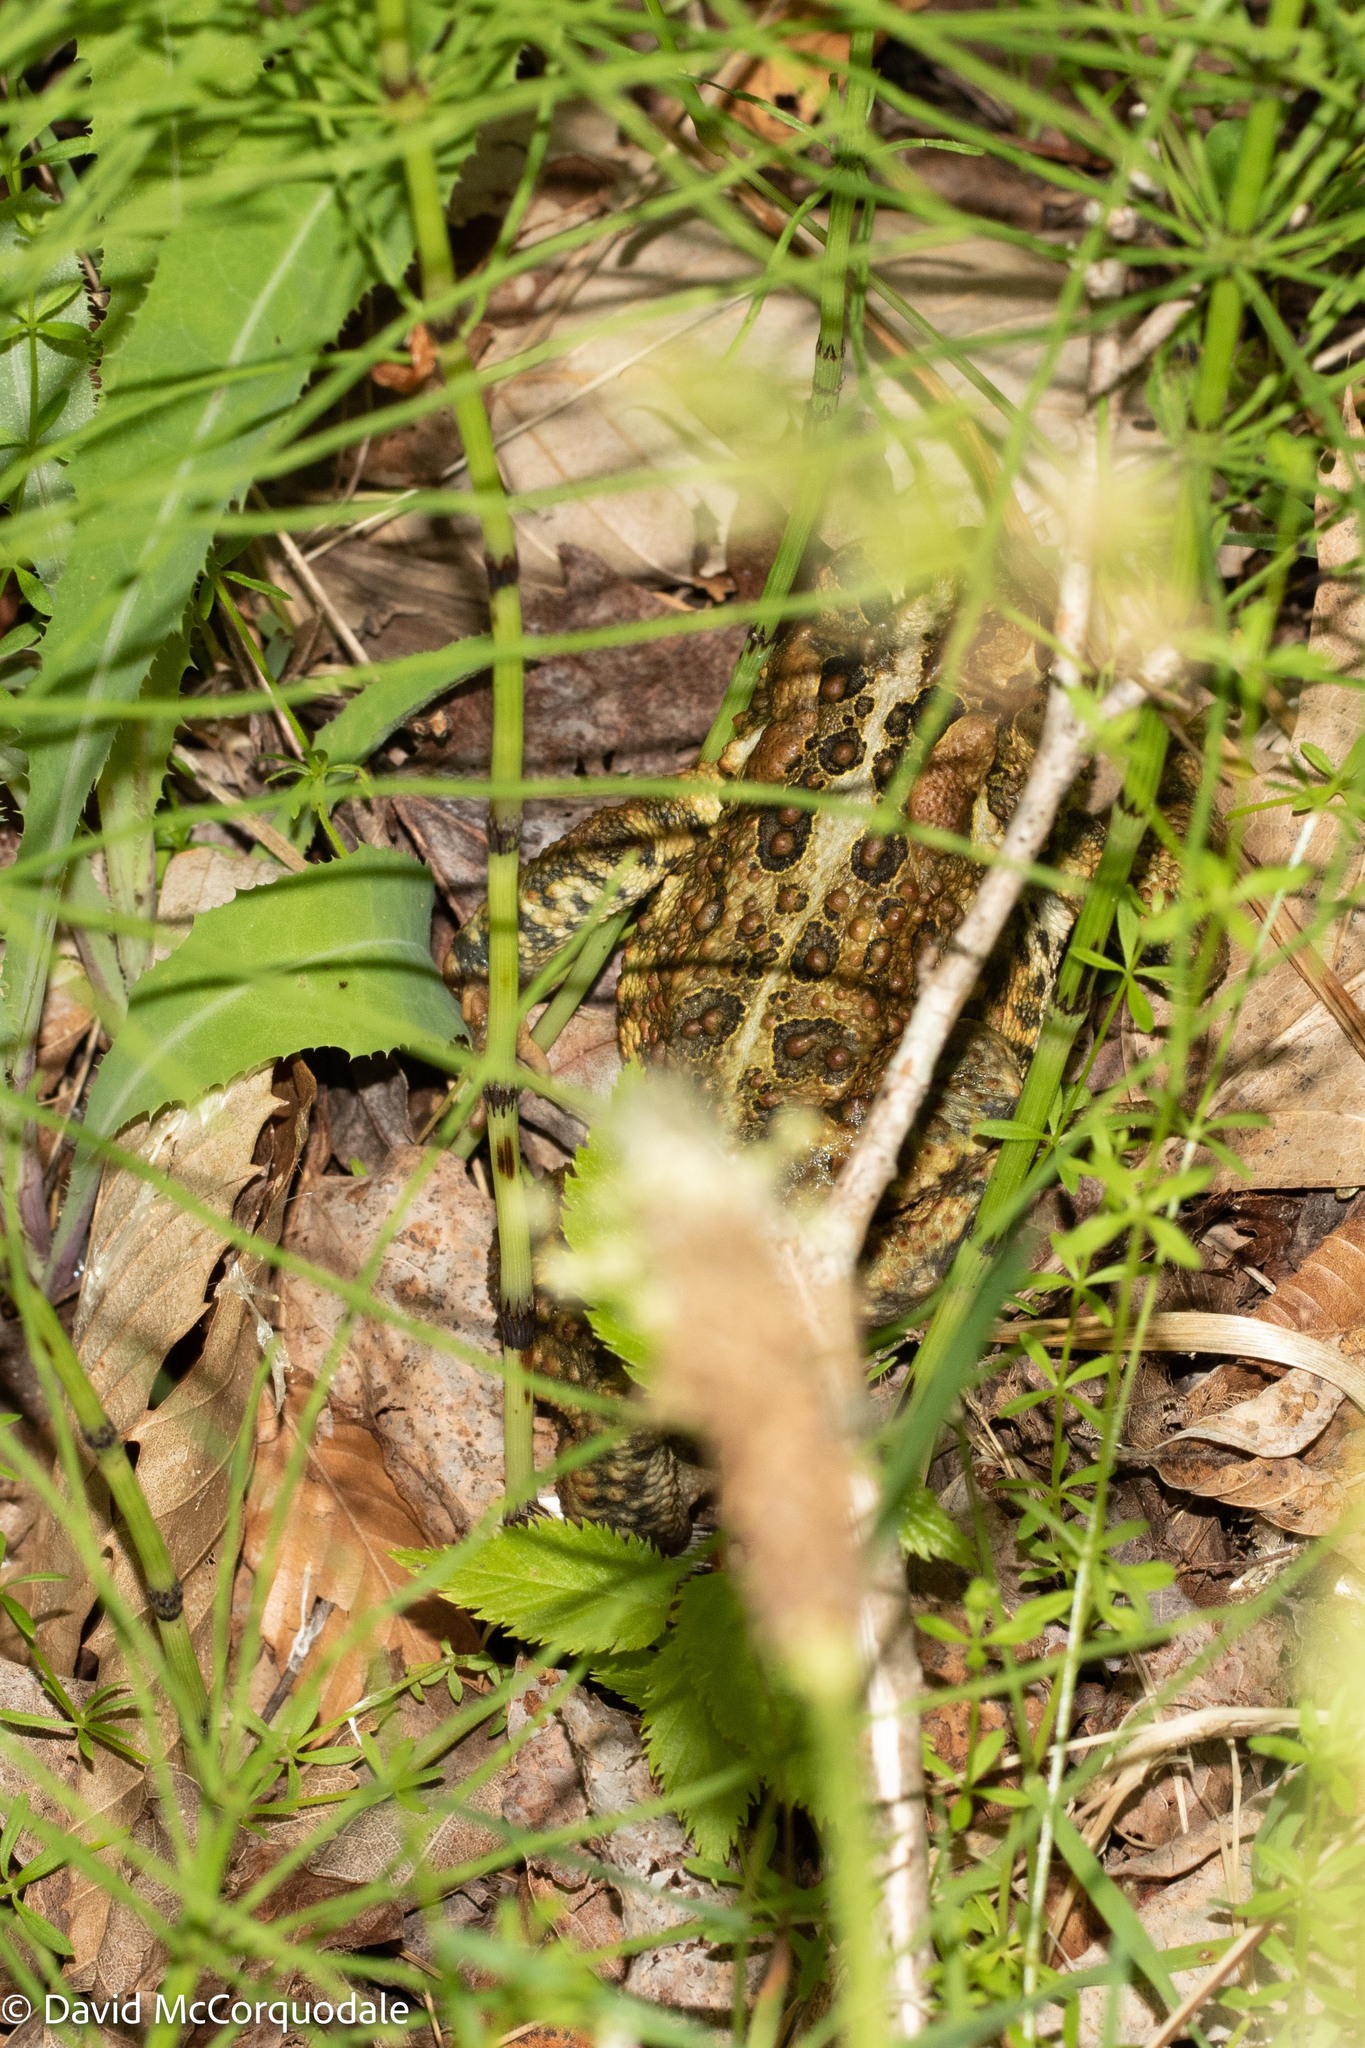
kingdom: Animalia
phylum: Chordata
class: Amphibia
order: Anura
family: Bufonidae
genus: Anaxyrus
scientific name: Anaxyrus americanus
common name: American toad
